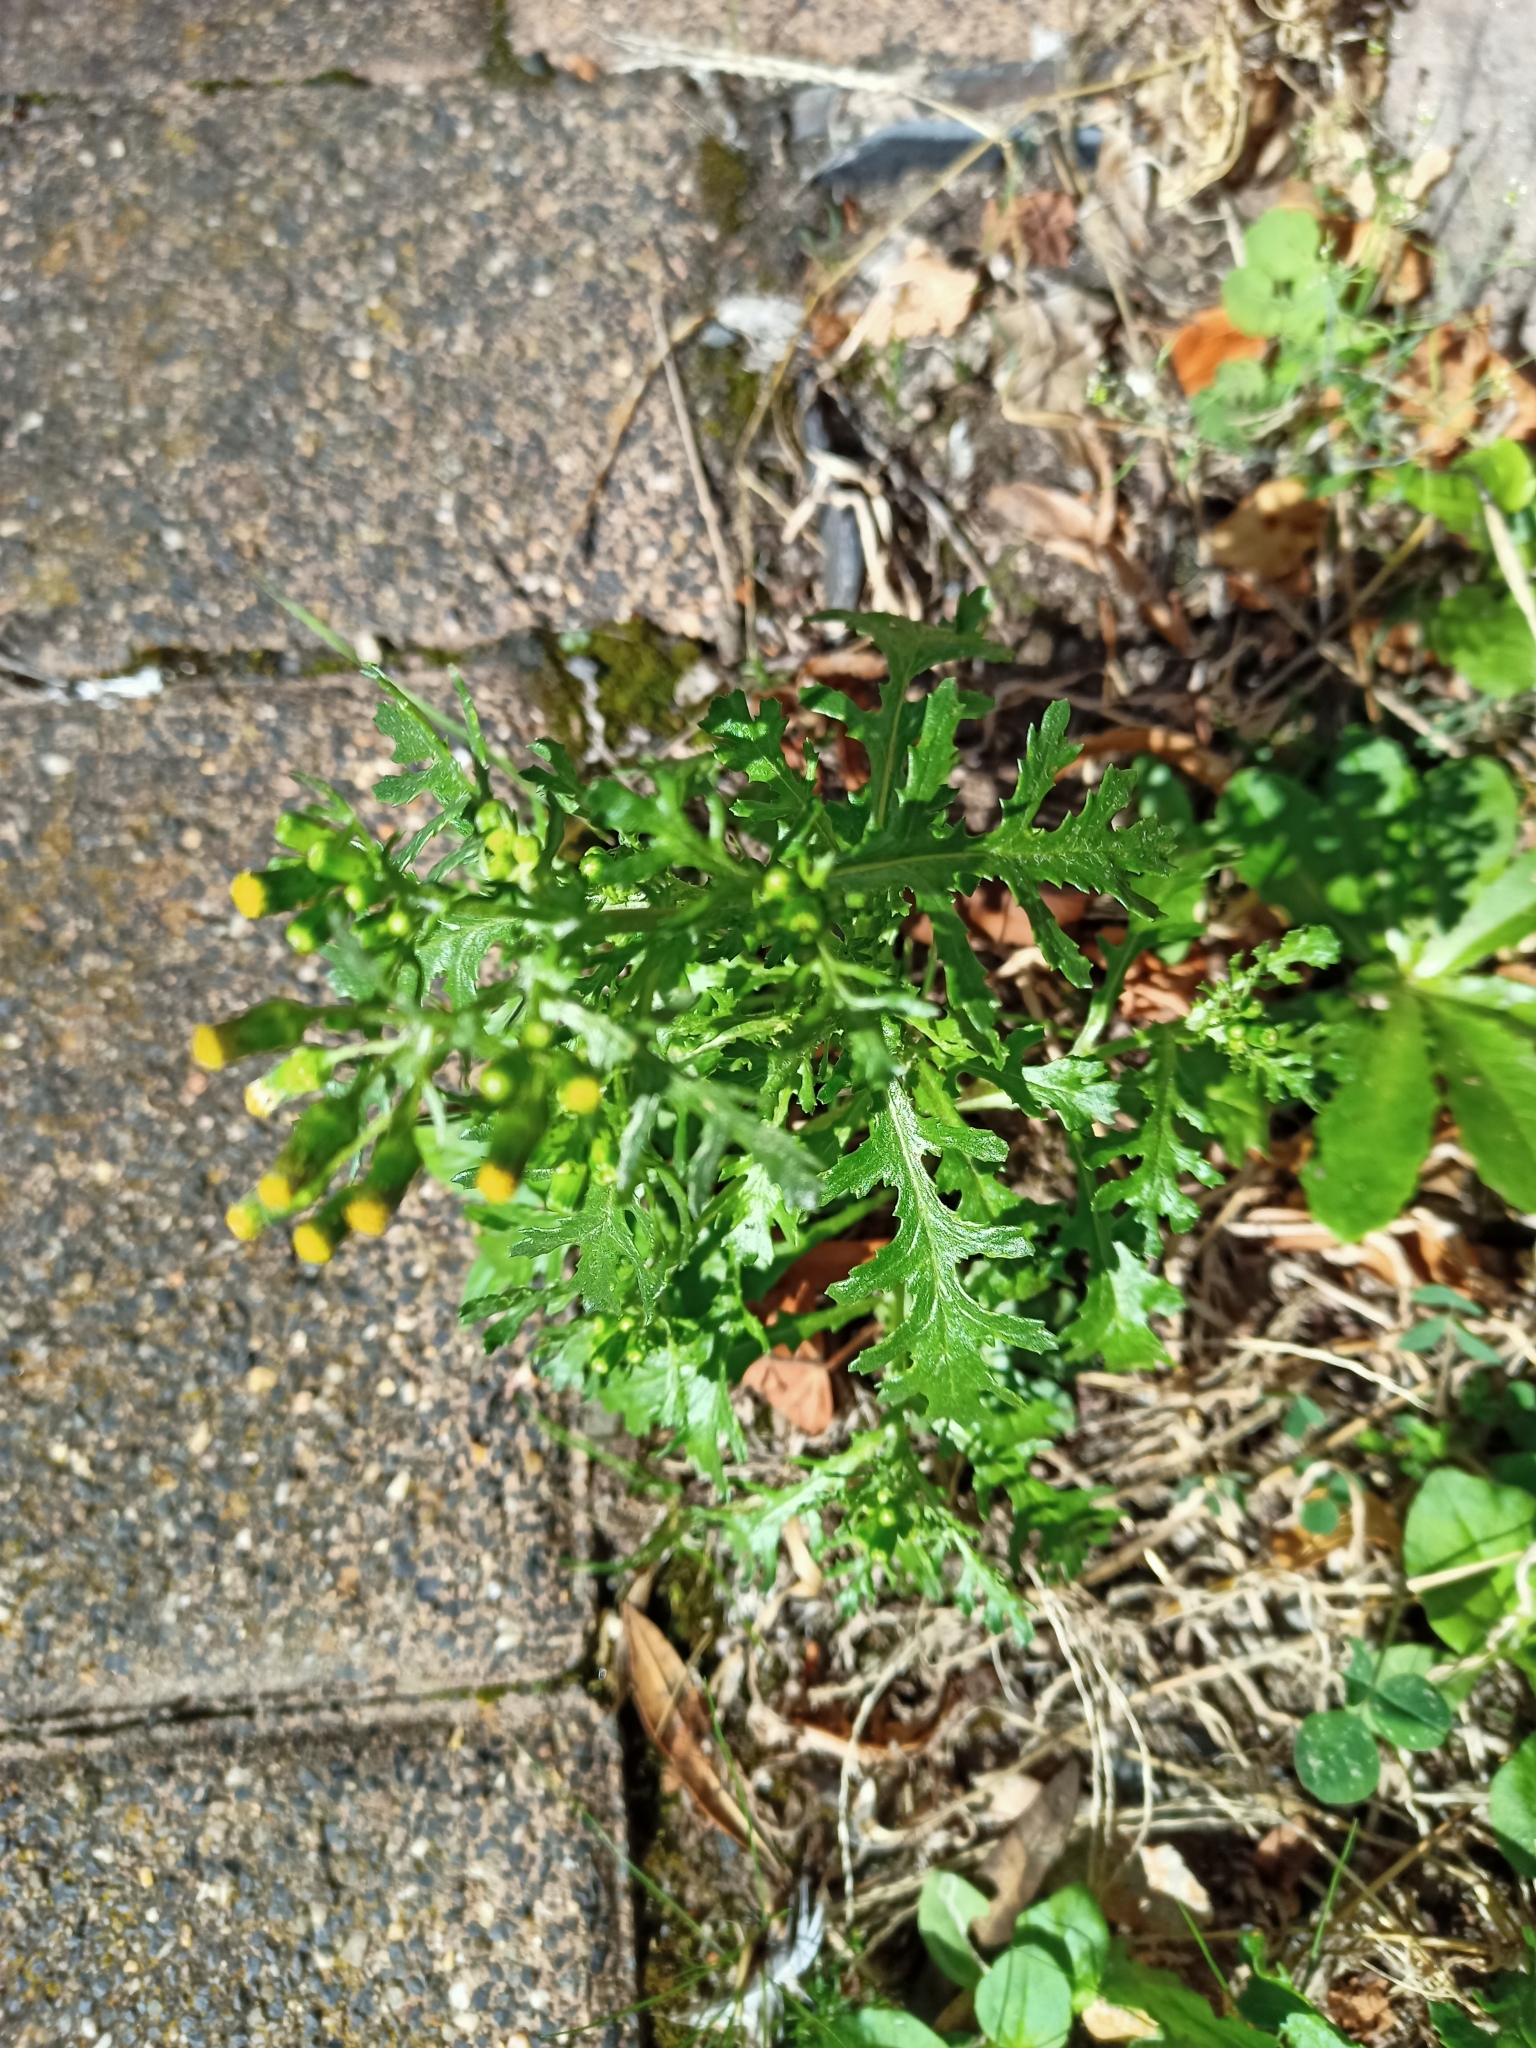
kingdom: Plantae
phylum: Tracheophyta
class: Magnoliopsida
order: Asterales
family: Asteraceae
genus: Senecio
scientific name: Senecio vulgaris
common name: Old-man-in-the-spring
